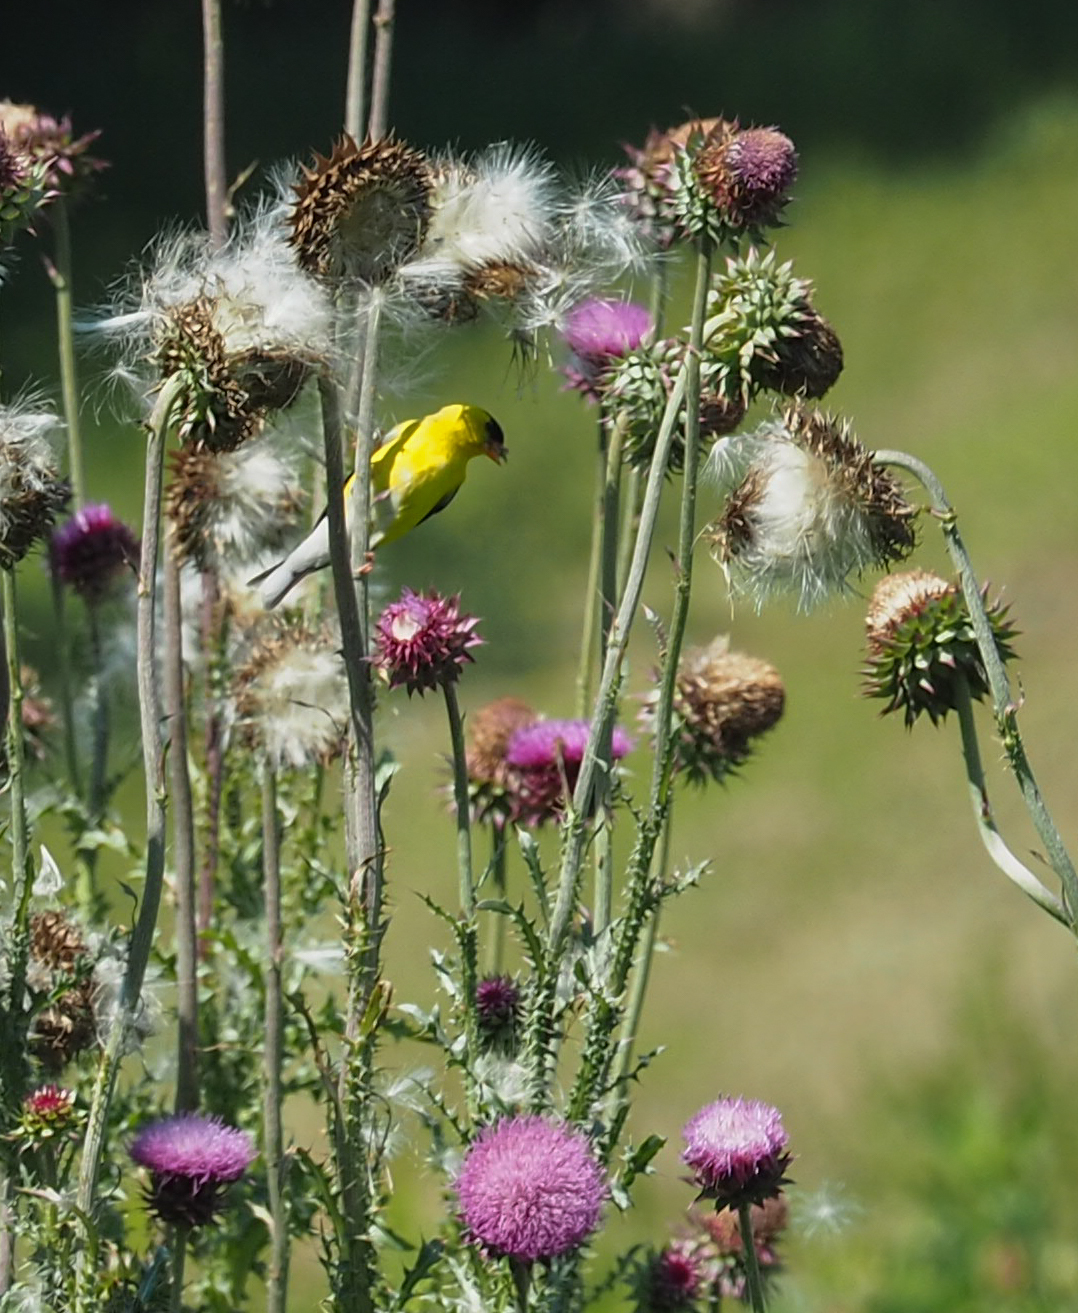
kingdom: Animalia
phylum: Chordata
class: Aves
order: Passeriformes
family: Fringillidae
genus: Spinus
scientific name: Spinus tristis
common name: American goldfinch
